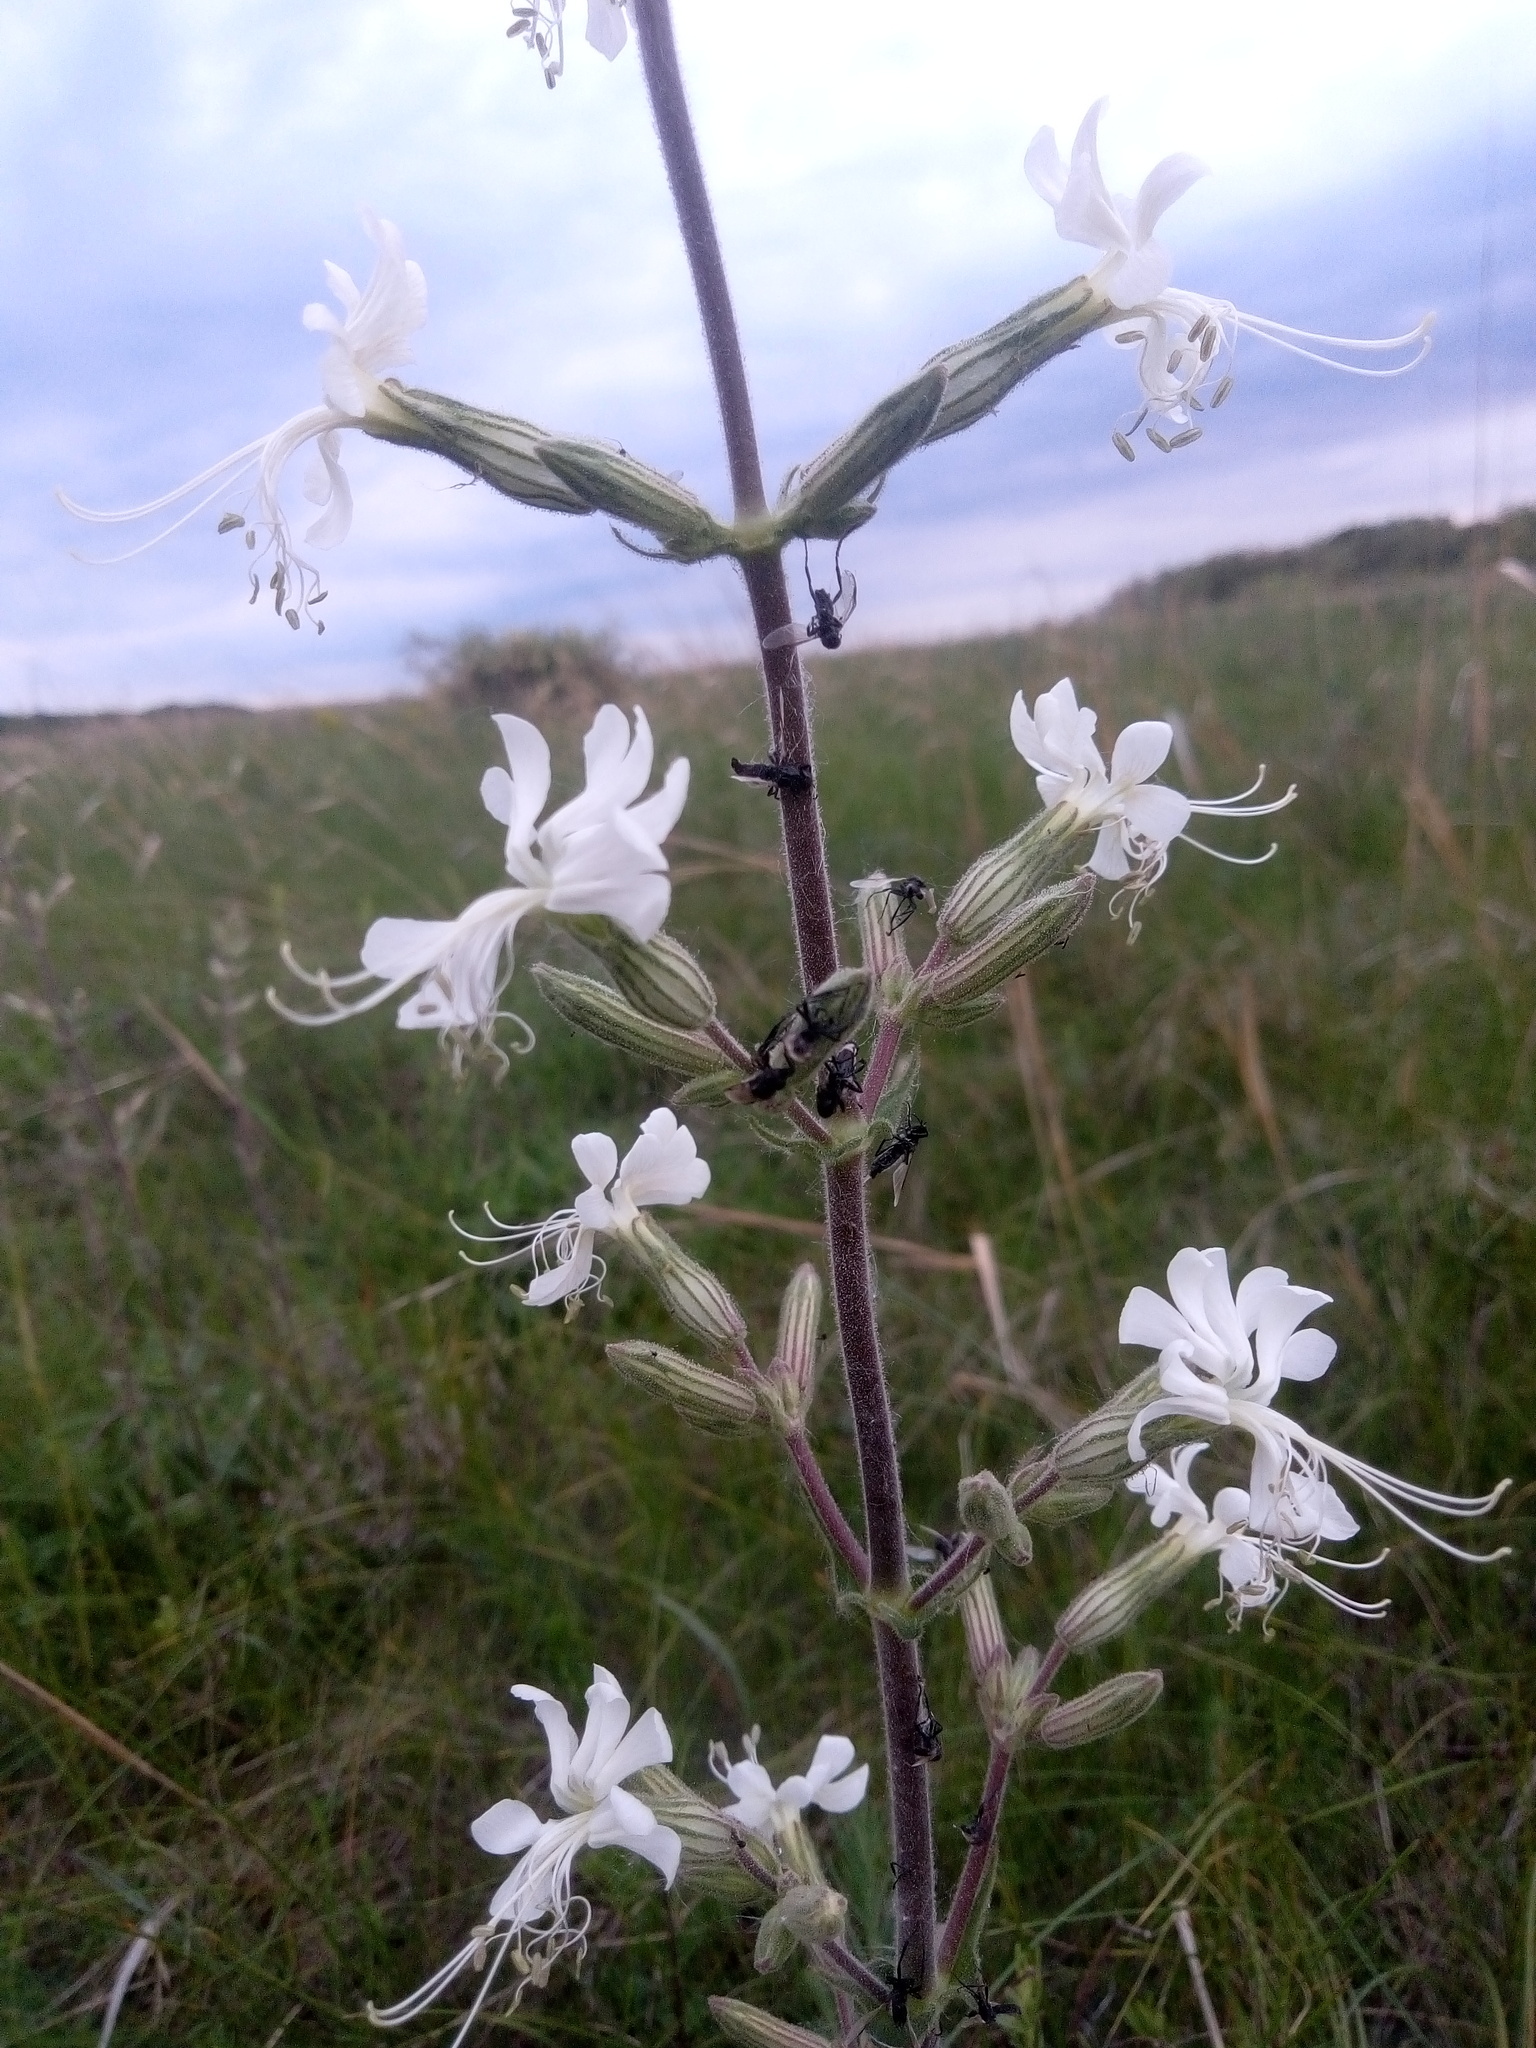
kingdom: Plantae
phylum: Tracheophyta
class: Magnoliopsida
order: Caryophyllales
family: Caryophyllaceae
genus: Silene
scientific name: Silene viscosa
